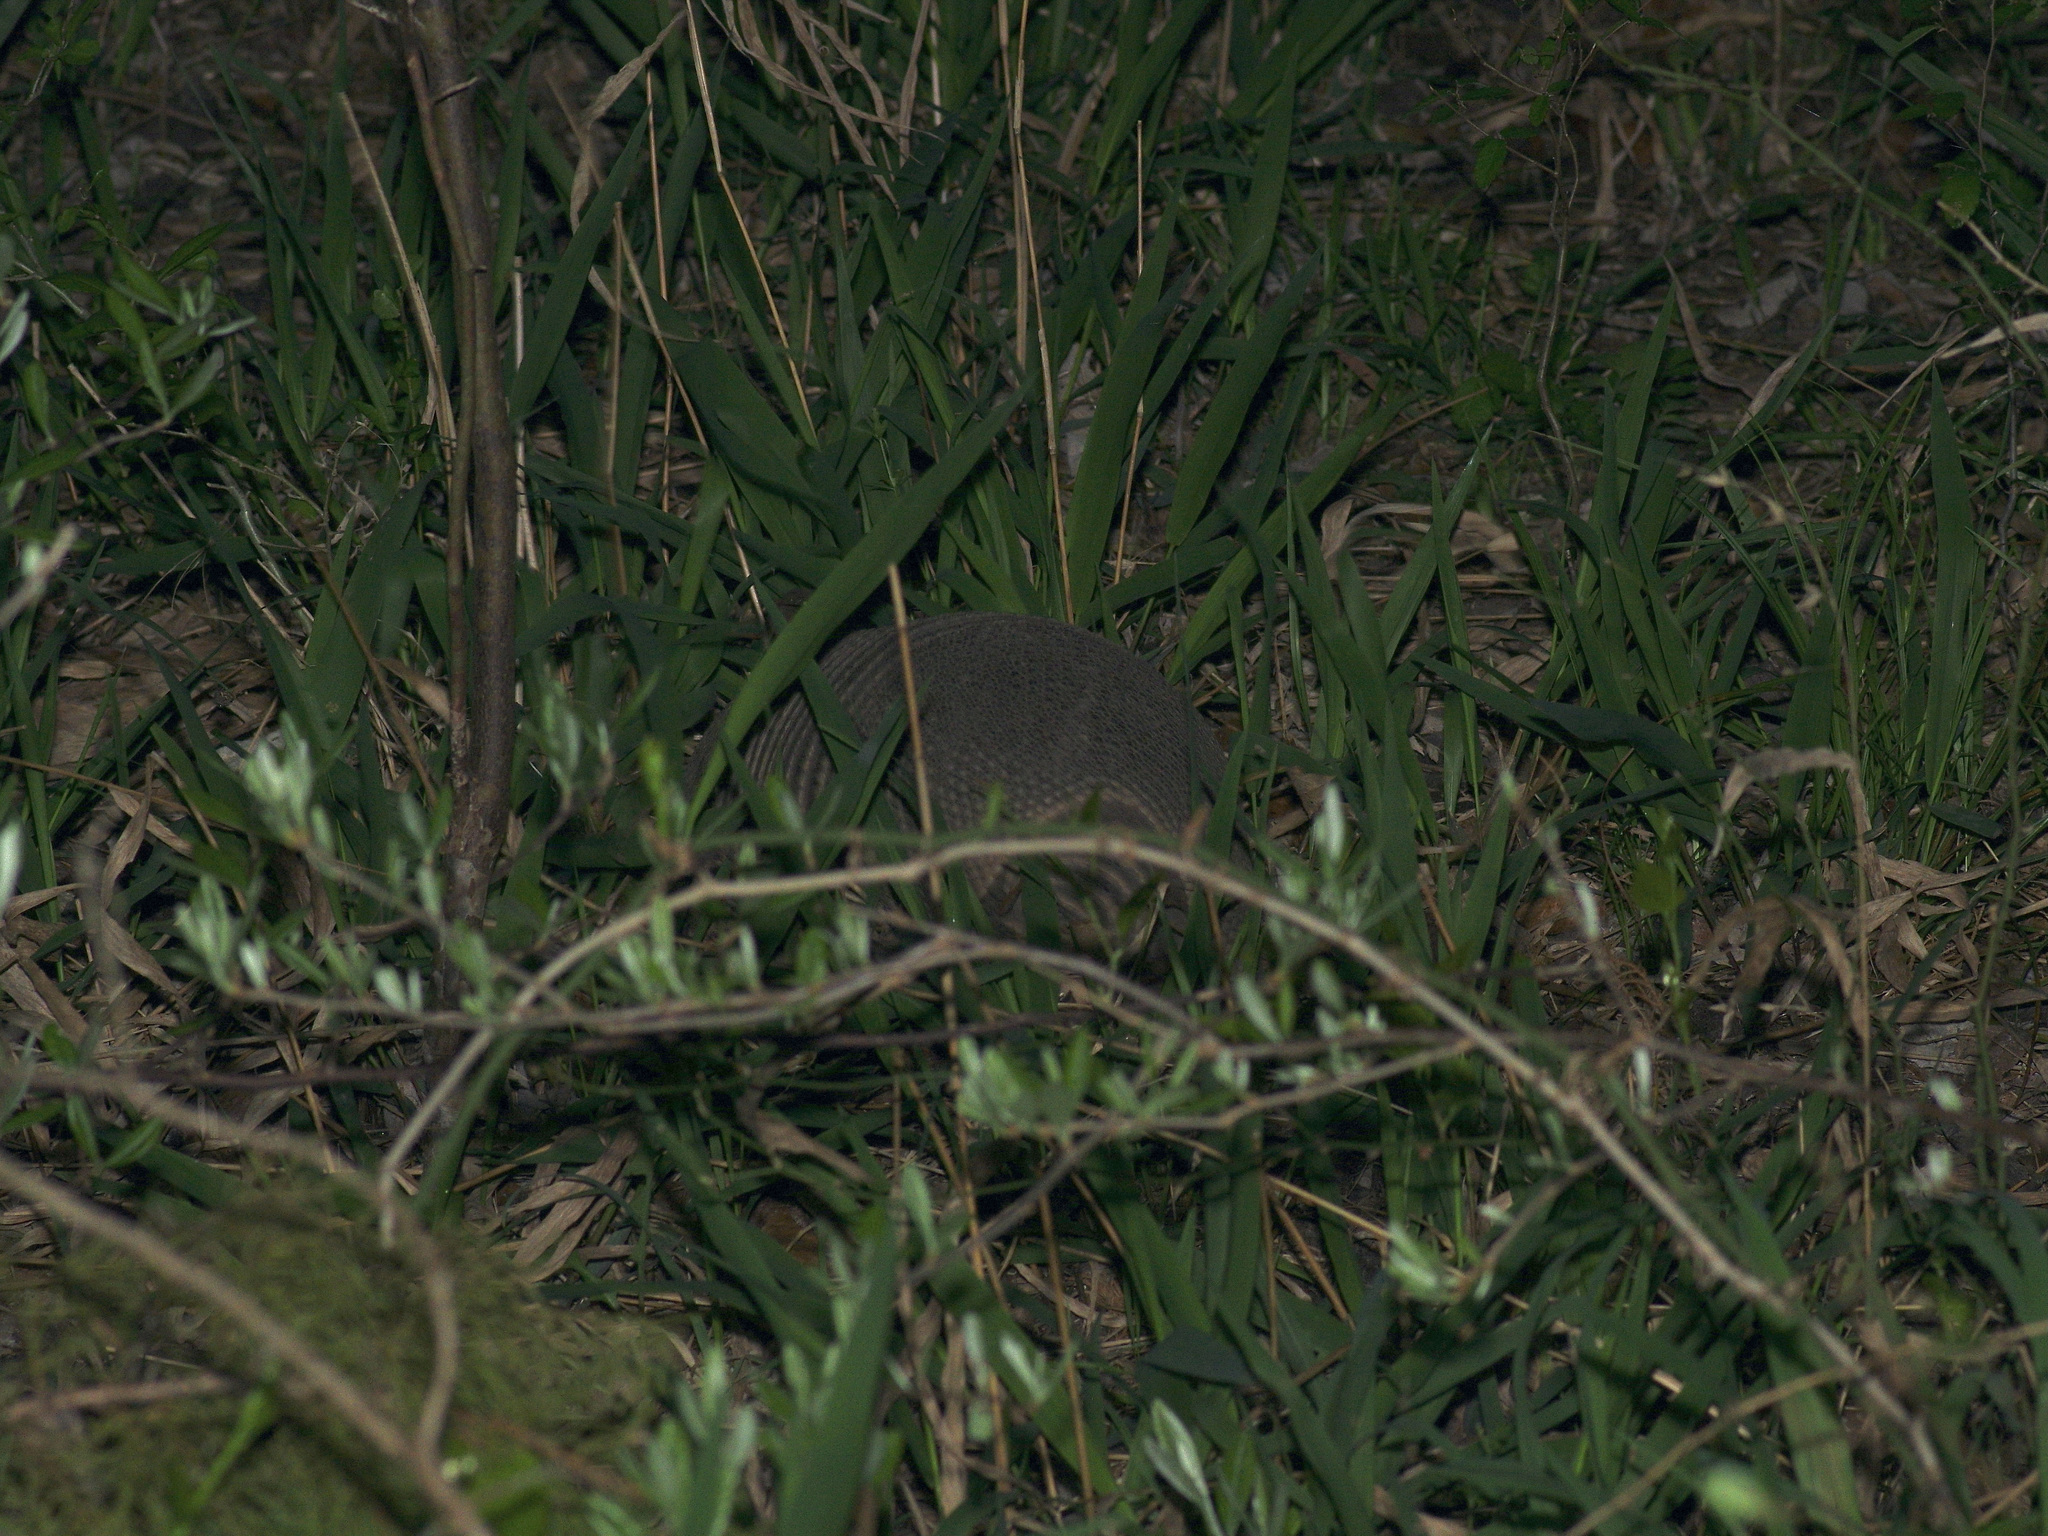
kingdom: Animalia
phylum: Chordata
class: Mammalia
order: Cingulata
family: Dasypodidae
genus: Dasypus
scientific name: Dasypus novemcinctus
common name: Nine-banded armadillo
